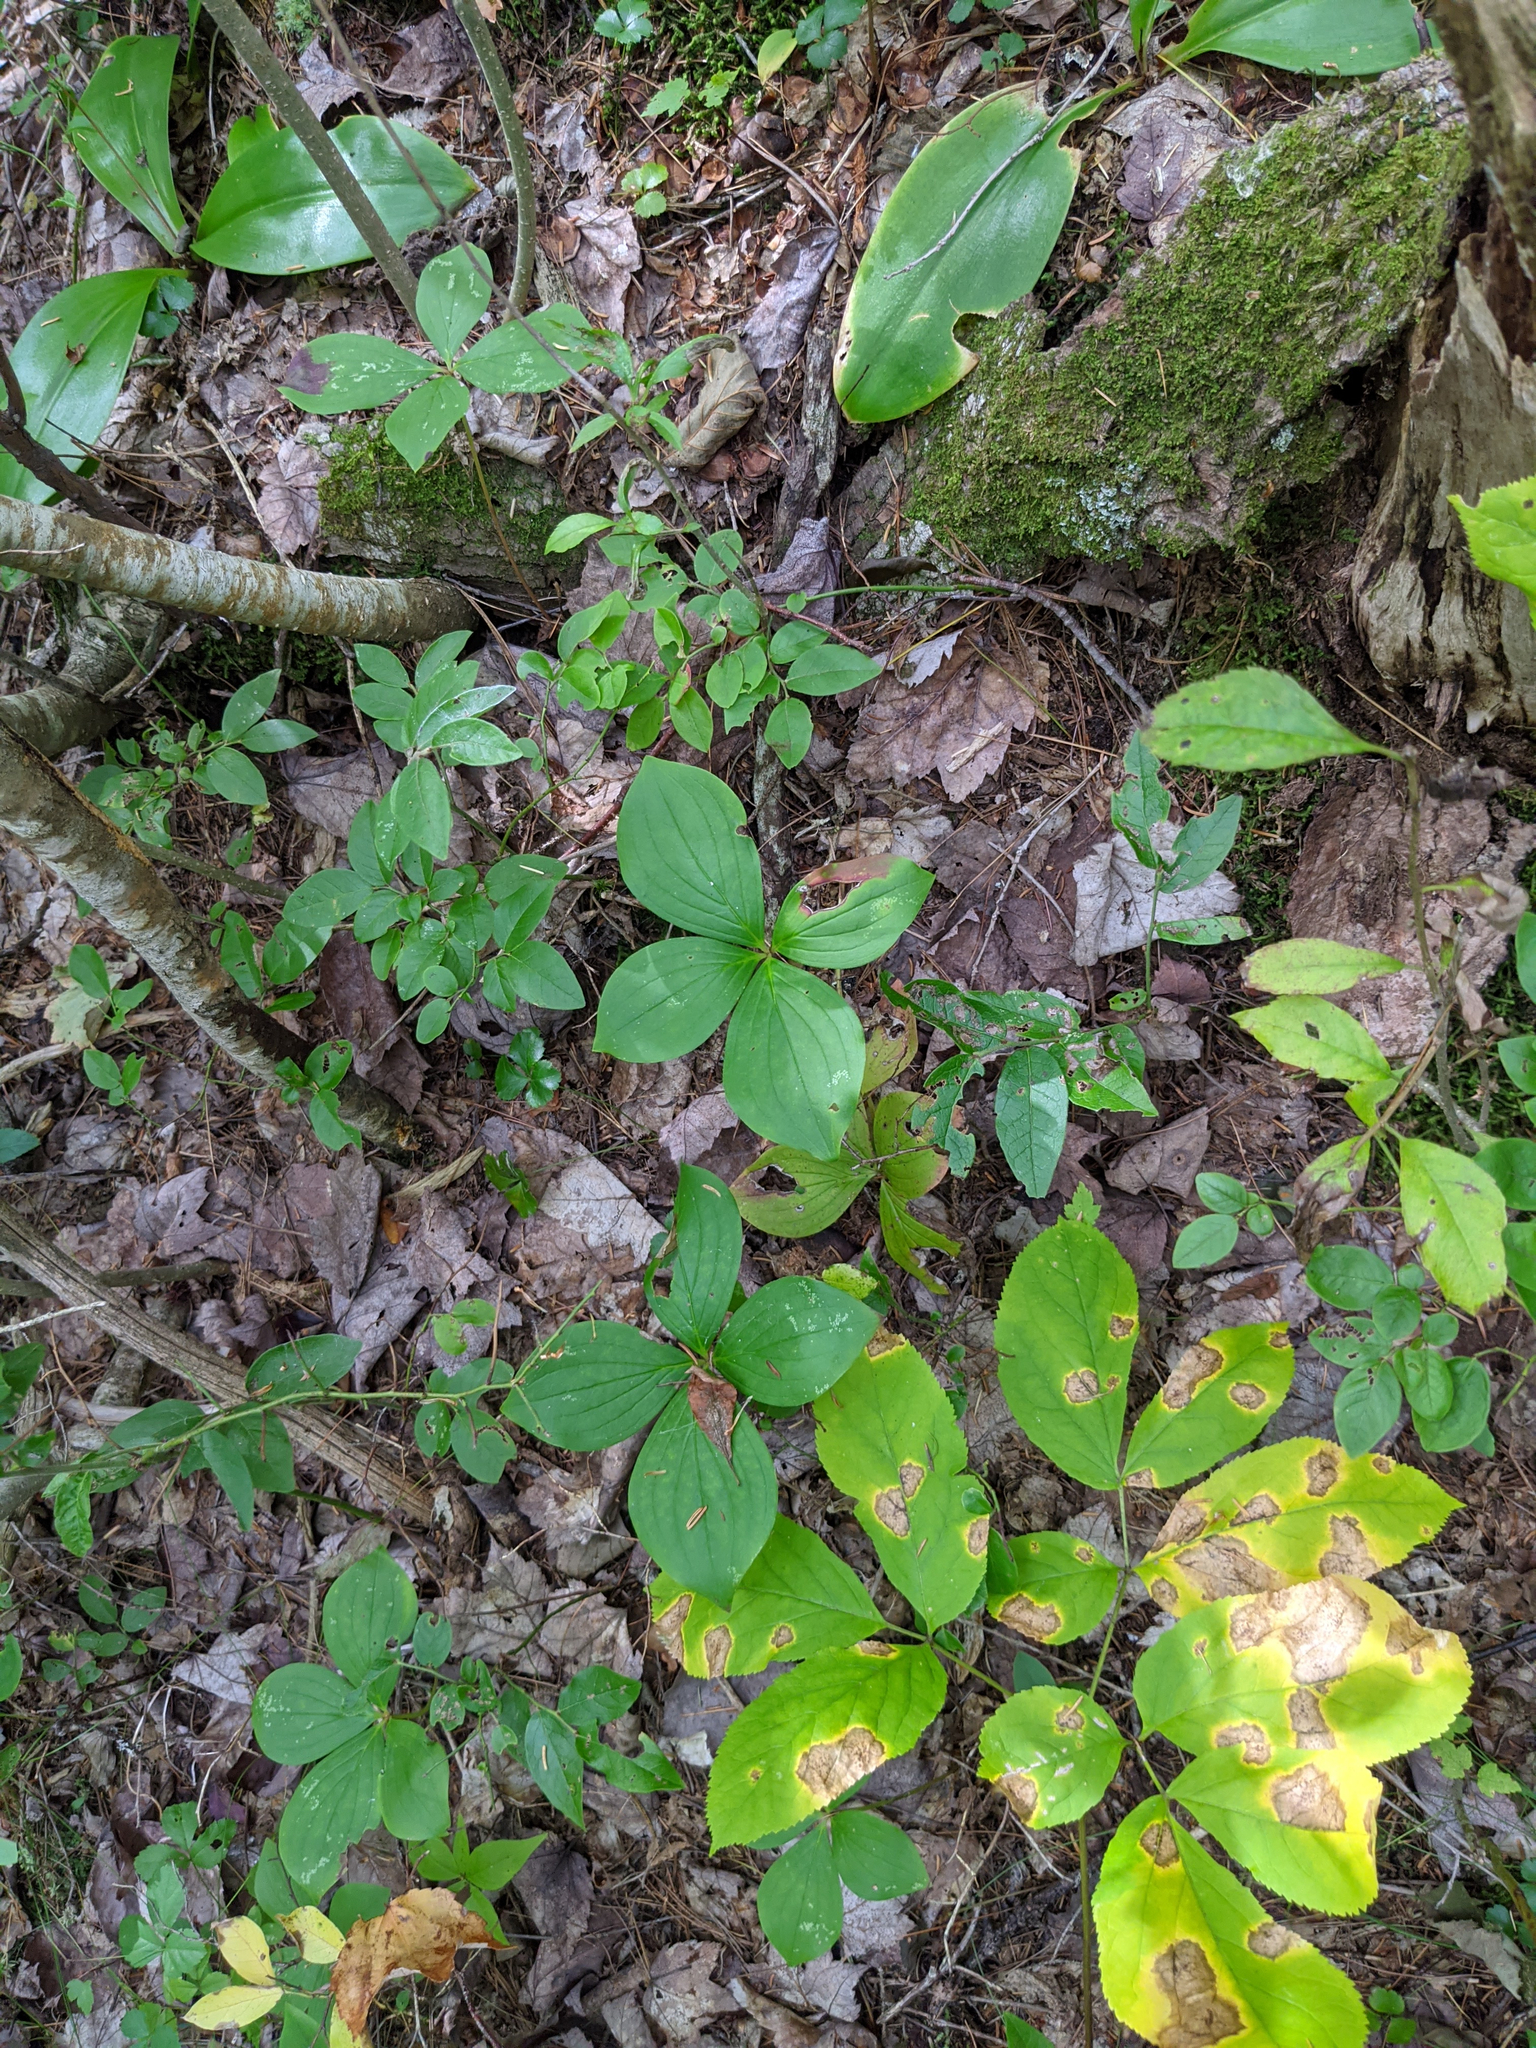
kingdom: Plantae
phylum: Tracheophyta
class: Liliopsida
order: Liliales
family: Liliaceae
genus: Clintonia
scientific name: Clintonia borealis
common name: Yellow clintonia
